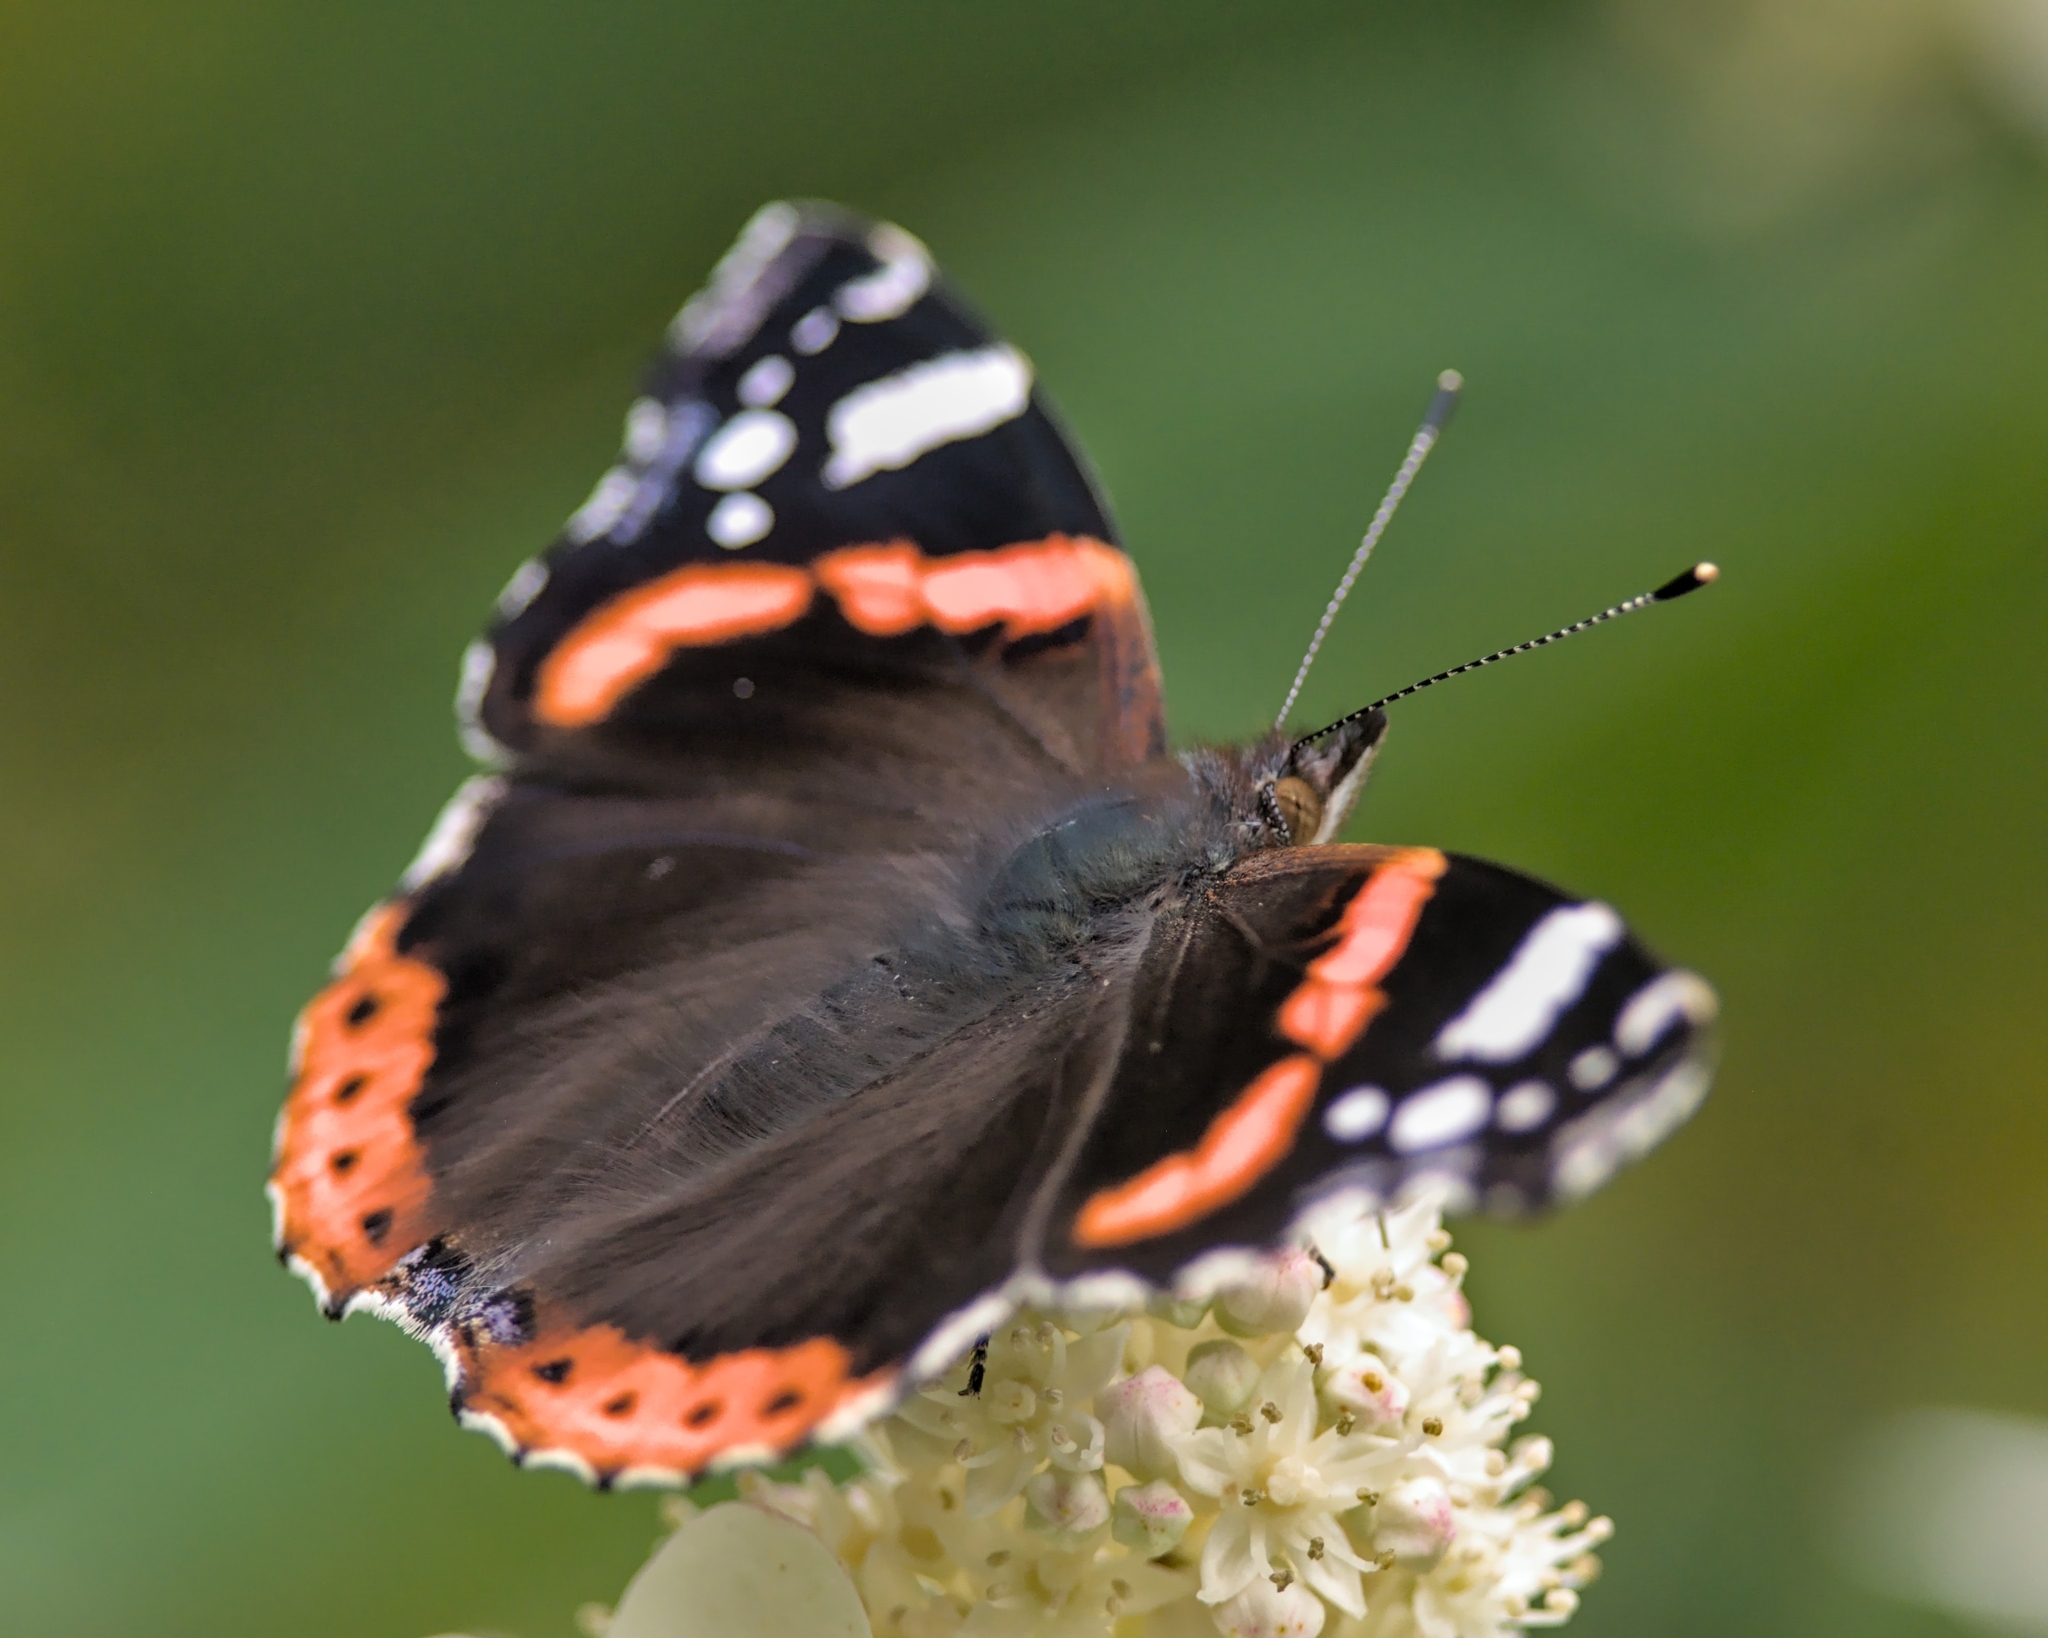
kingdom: Animalia
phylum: Arthropoda
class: Insecta
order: Lepidoptera
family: Nymphalidae
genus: Vanessa
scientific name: Vanessa atalanta
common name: Red admiral
